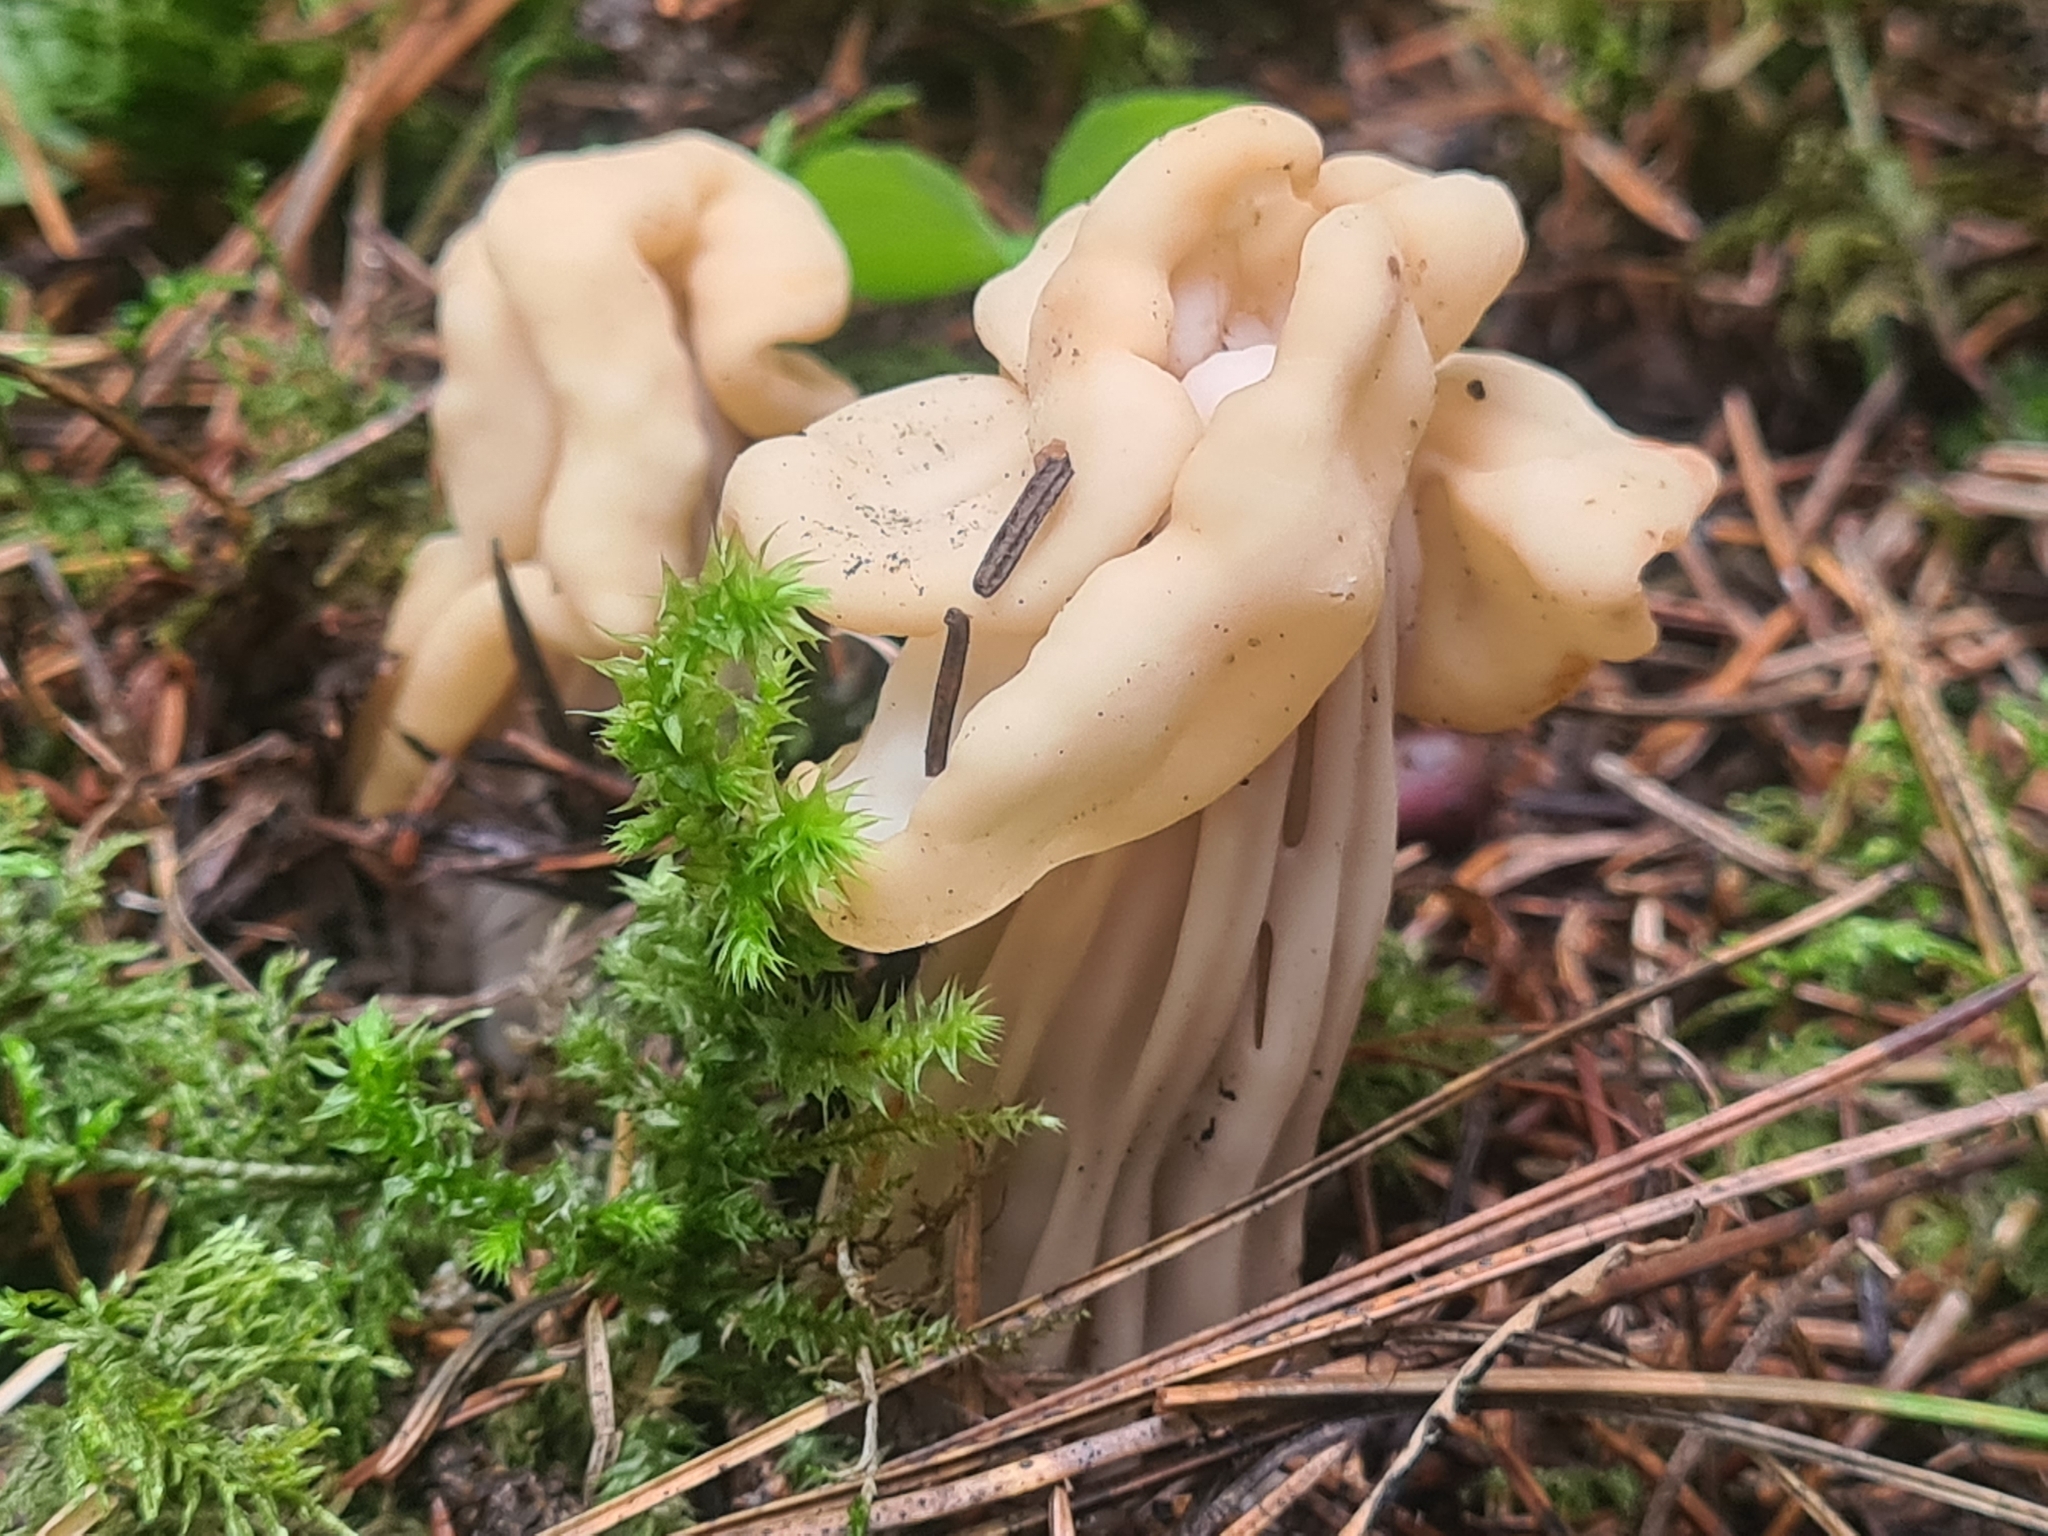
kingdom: Fungi
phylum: Ascomycota
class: Pezizomycetes
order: Pezizales
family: Helvellaceae
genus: Helvella
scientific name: Helvella crispa
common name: White saddle
